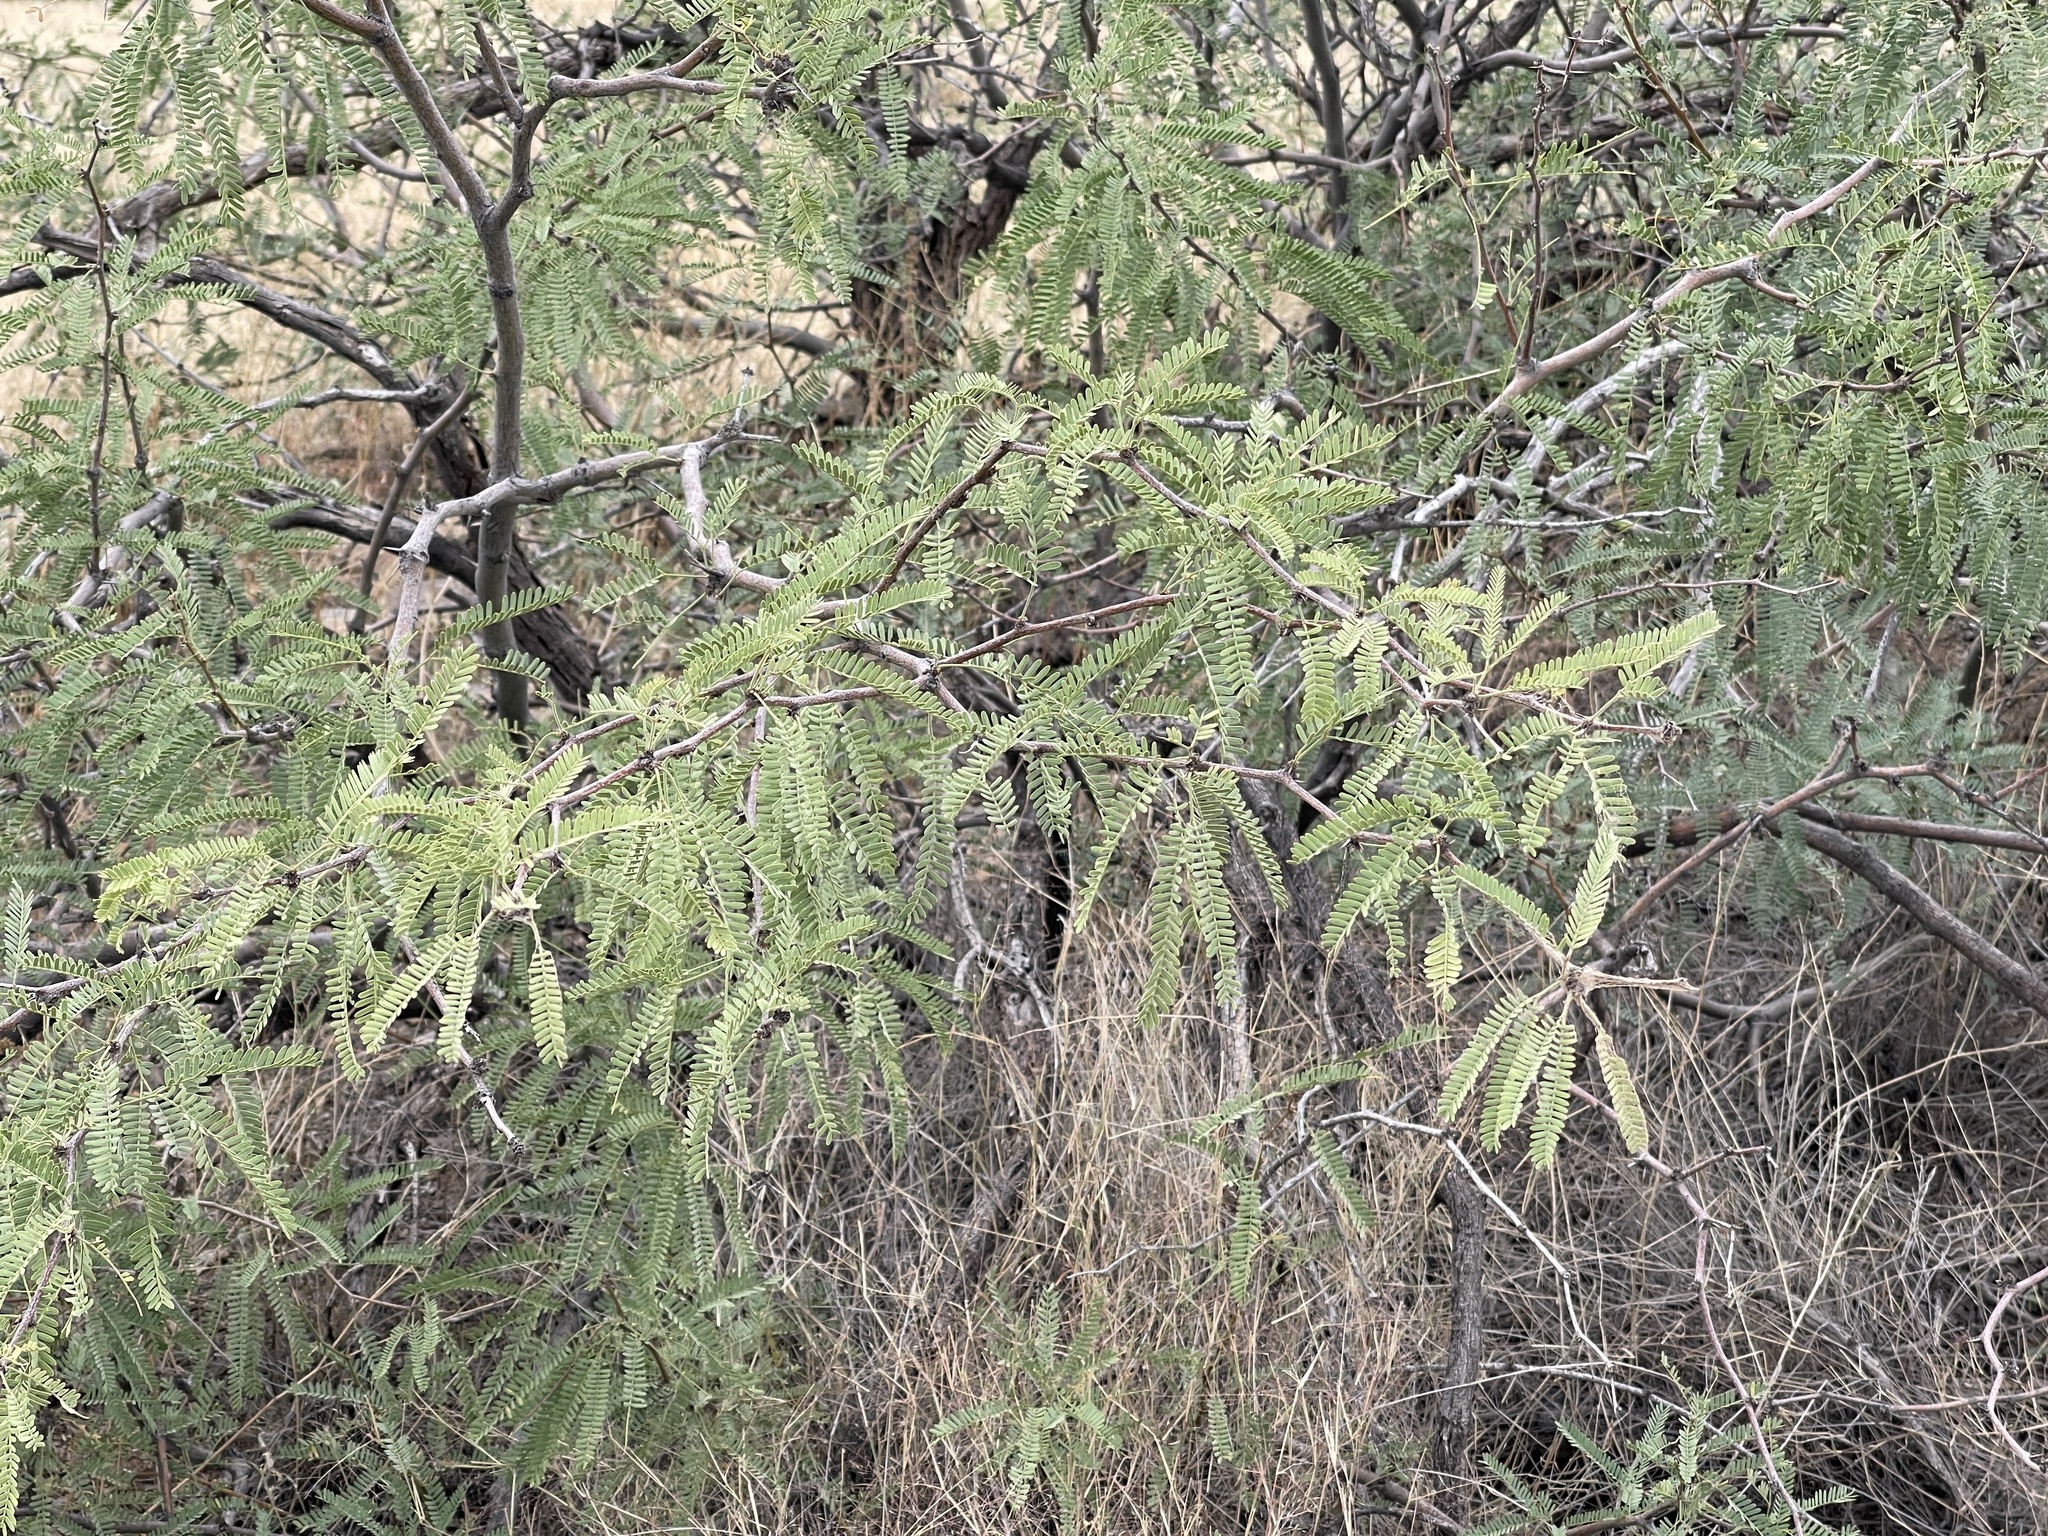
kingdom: Plantae
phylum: Tracheophyta
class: Magnoliopsida
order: Fabales
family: Fabaceae
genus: Prosopis
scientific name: Prosopis velutina
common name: Velvet mesquite
